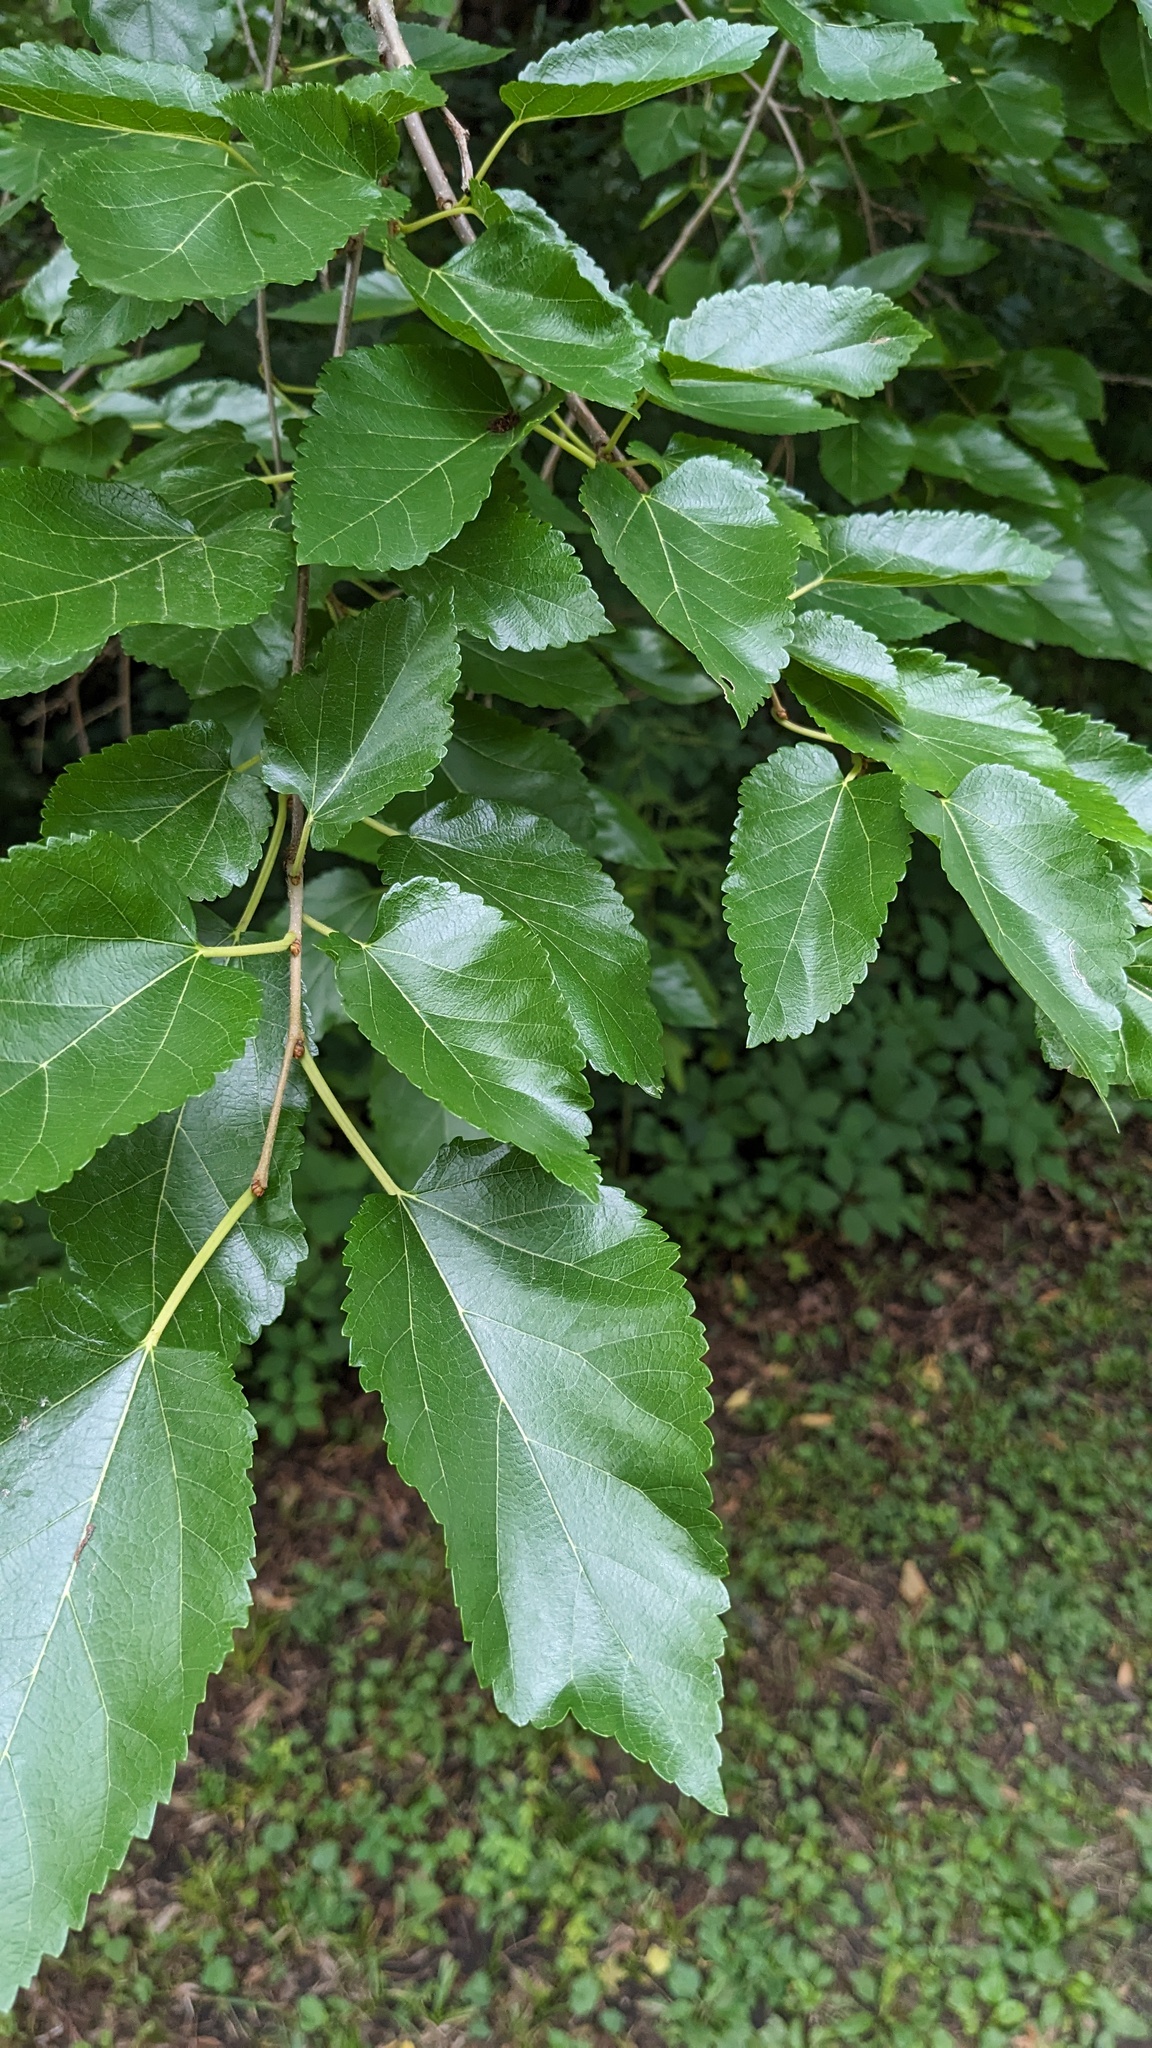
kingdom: Plantae
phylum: Tracheophyta
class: Magnoliopsida
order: Rosales
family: Moraceae
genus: Morus
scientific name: Morus alba
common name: White mulberry
